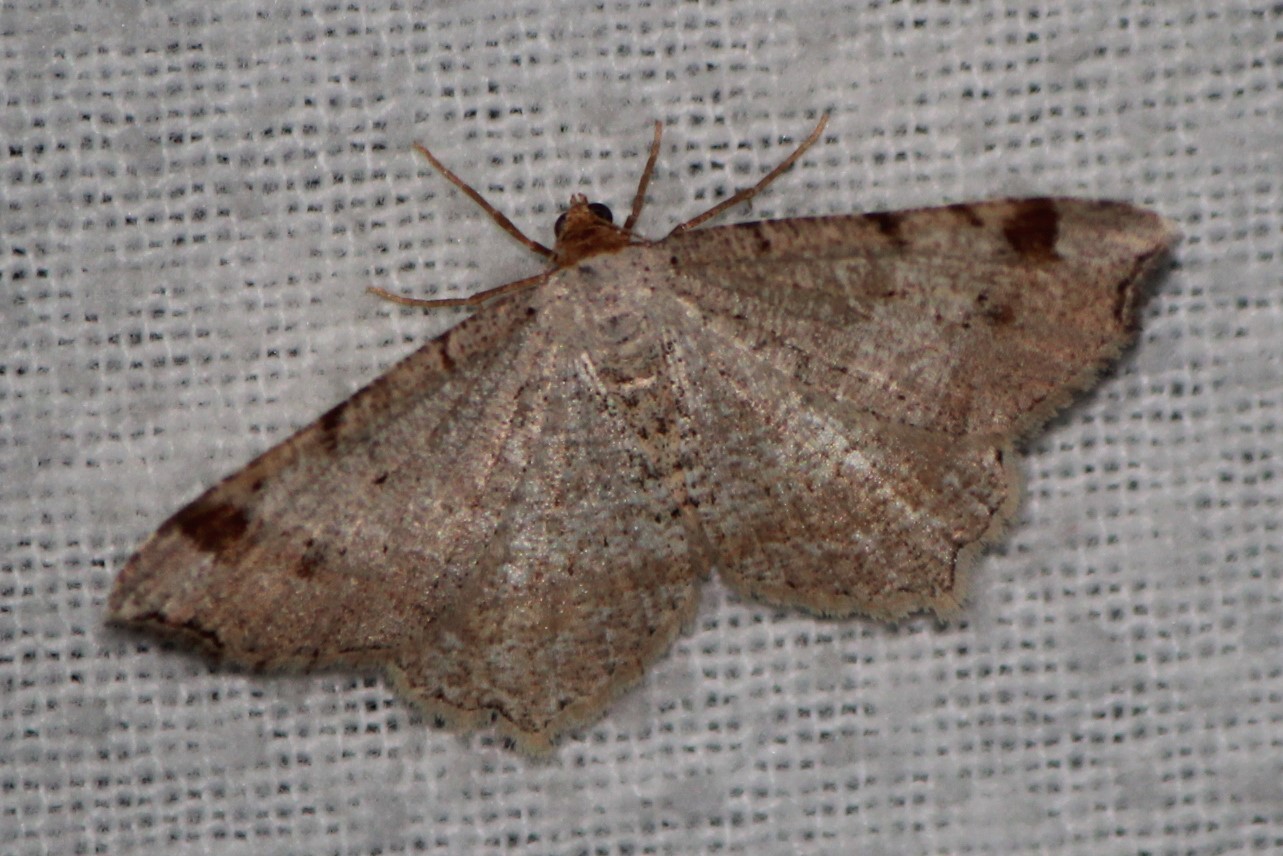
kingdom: Animalia
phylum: Arthropoda
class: Insecta
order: Lepidoptera
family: Geometridae
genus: Macaria
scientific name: Macaria bisignata
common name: Red-headed inchworm
